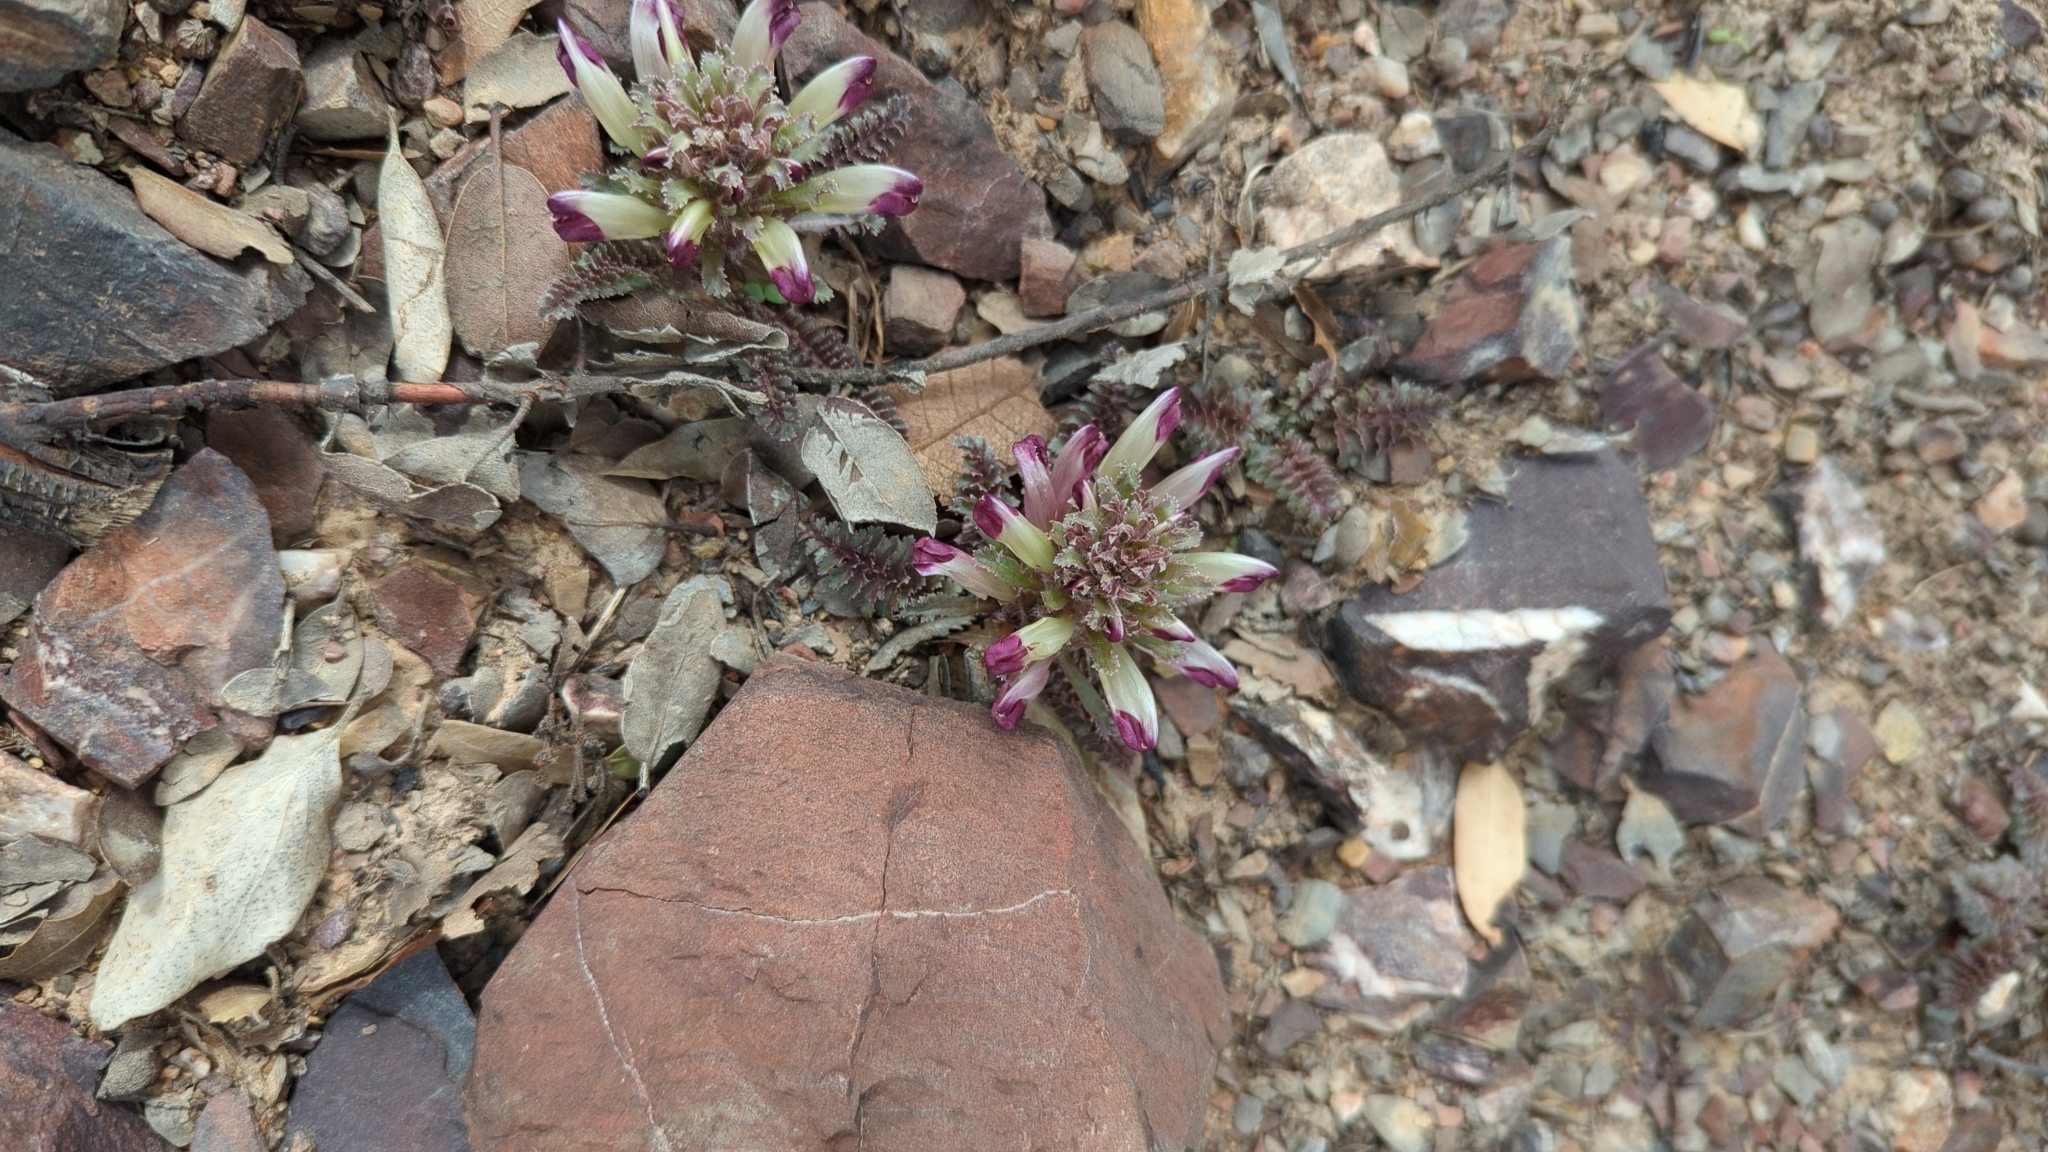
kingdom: Plantae
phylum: Tracheophyta
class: Magnoliopsida
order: Lamiales
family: Orobanchaceae
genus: Pedicularis
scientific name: Pedicularis centranthera
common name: Dwarf lousewort
